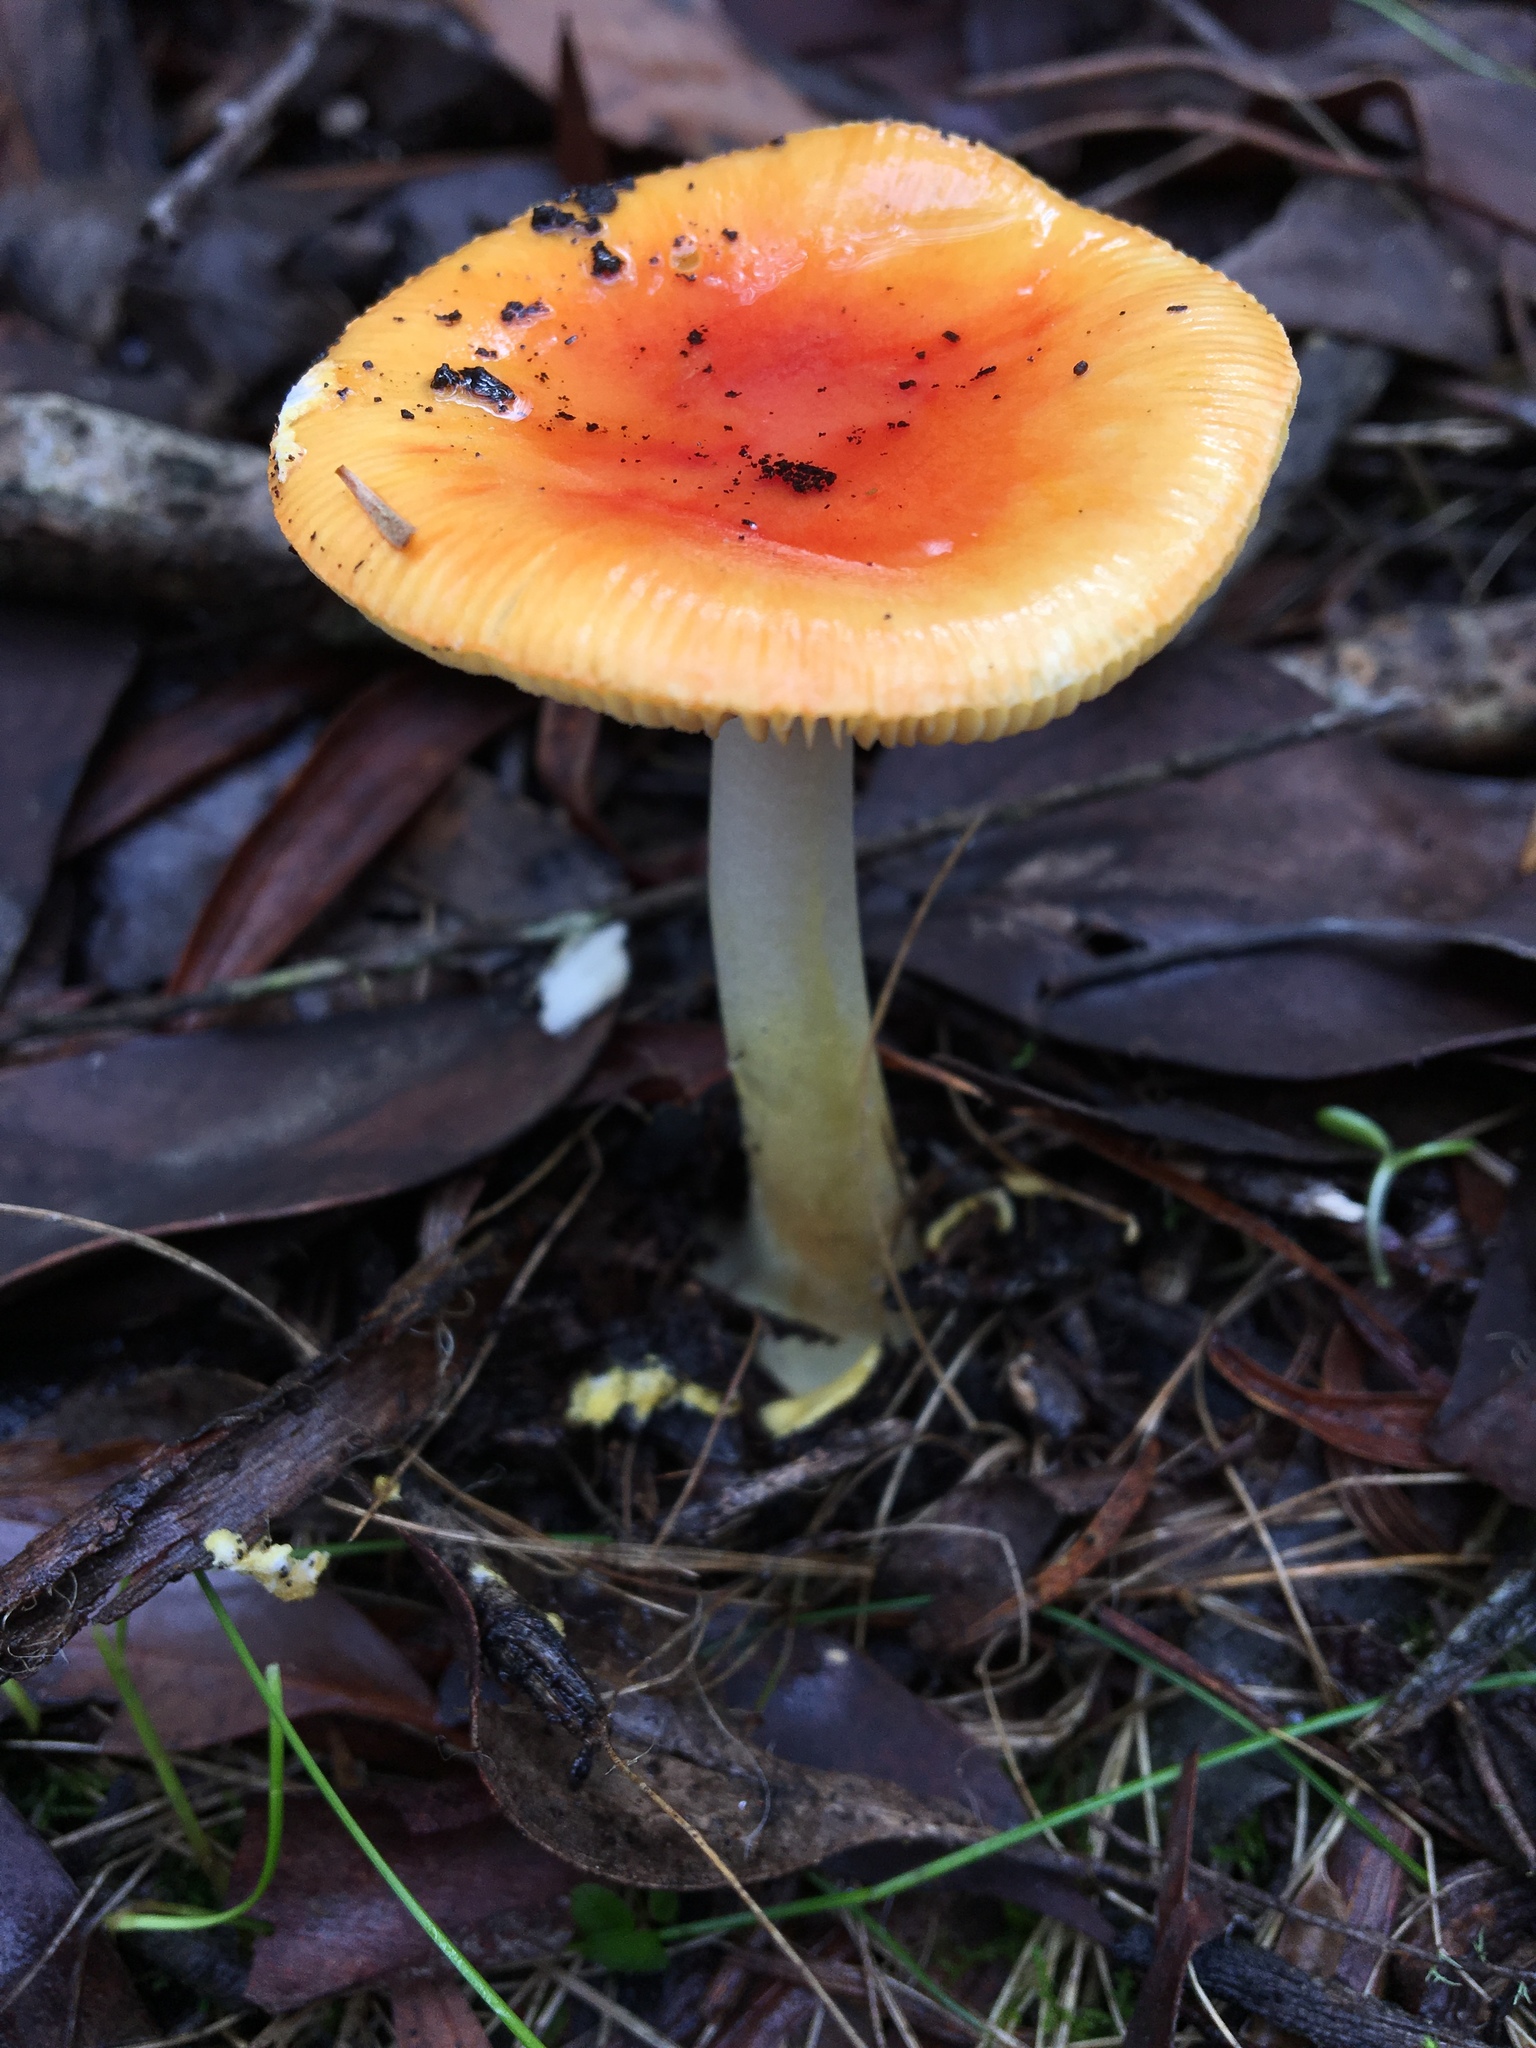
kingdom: Fungi
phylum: Basidiomycota
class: Agaricomycetes
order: Agaricales
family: Amanitaceae
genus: Amanita
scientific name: Amanita xanthocephala
